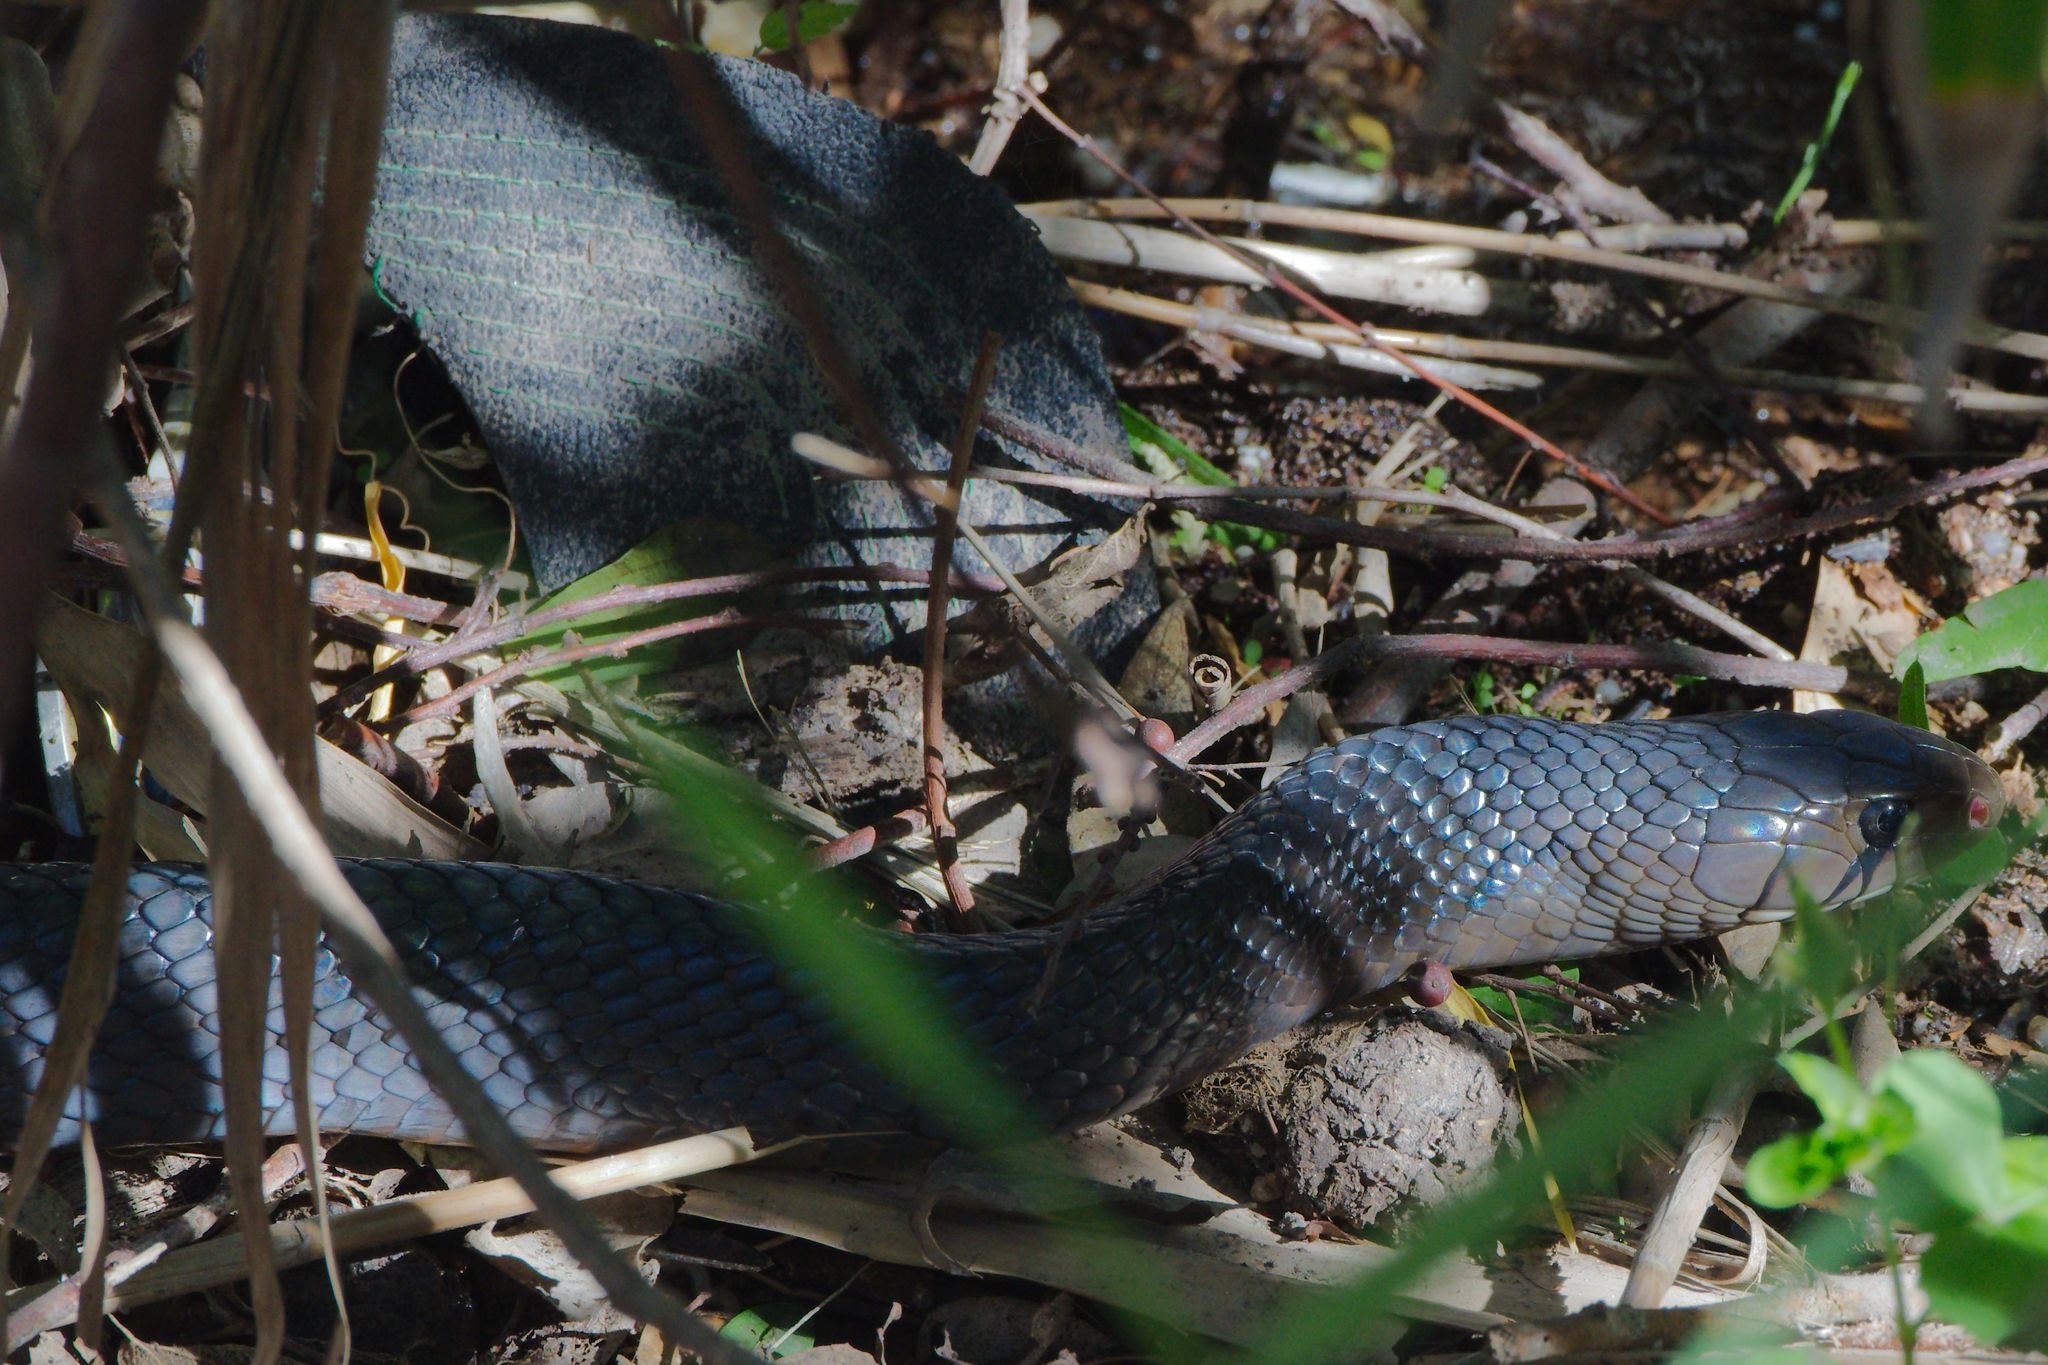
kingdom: Animalia
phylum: Chordata
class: Squamata
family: Colubridae
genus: Drymarchon
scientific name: Drymarchon melanurus
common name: Central american indigo snake
